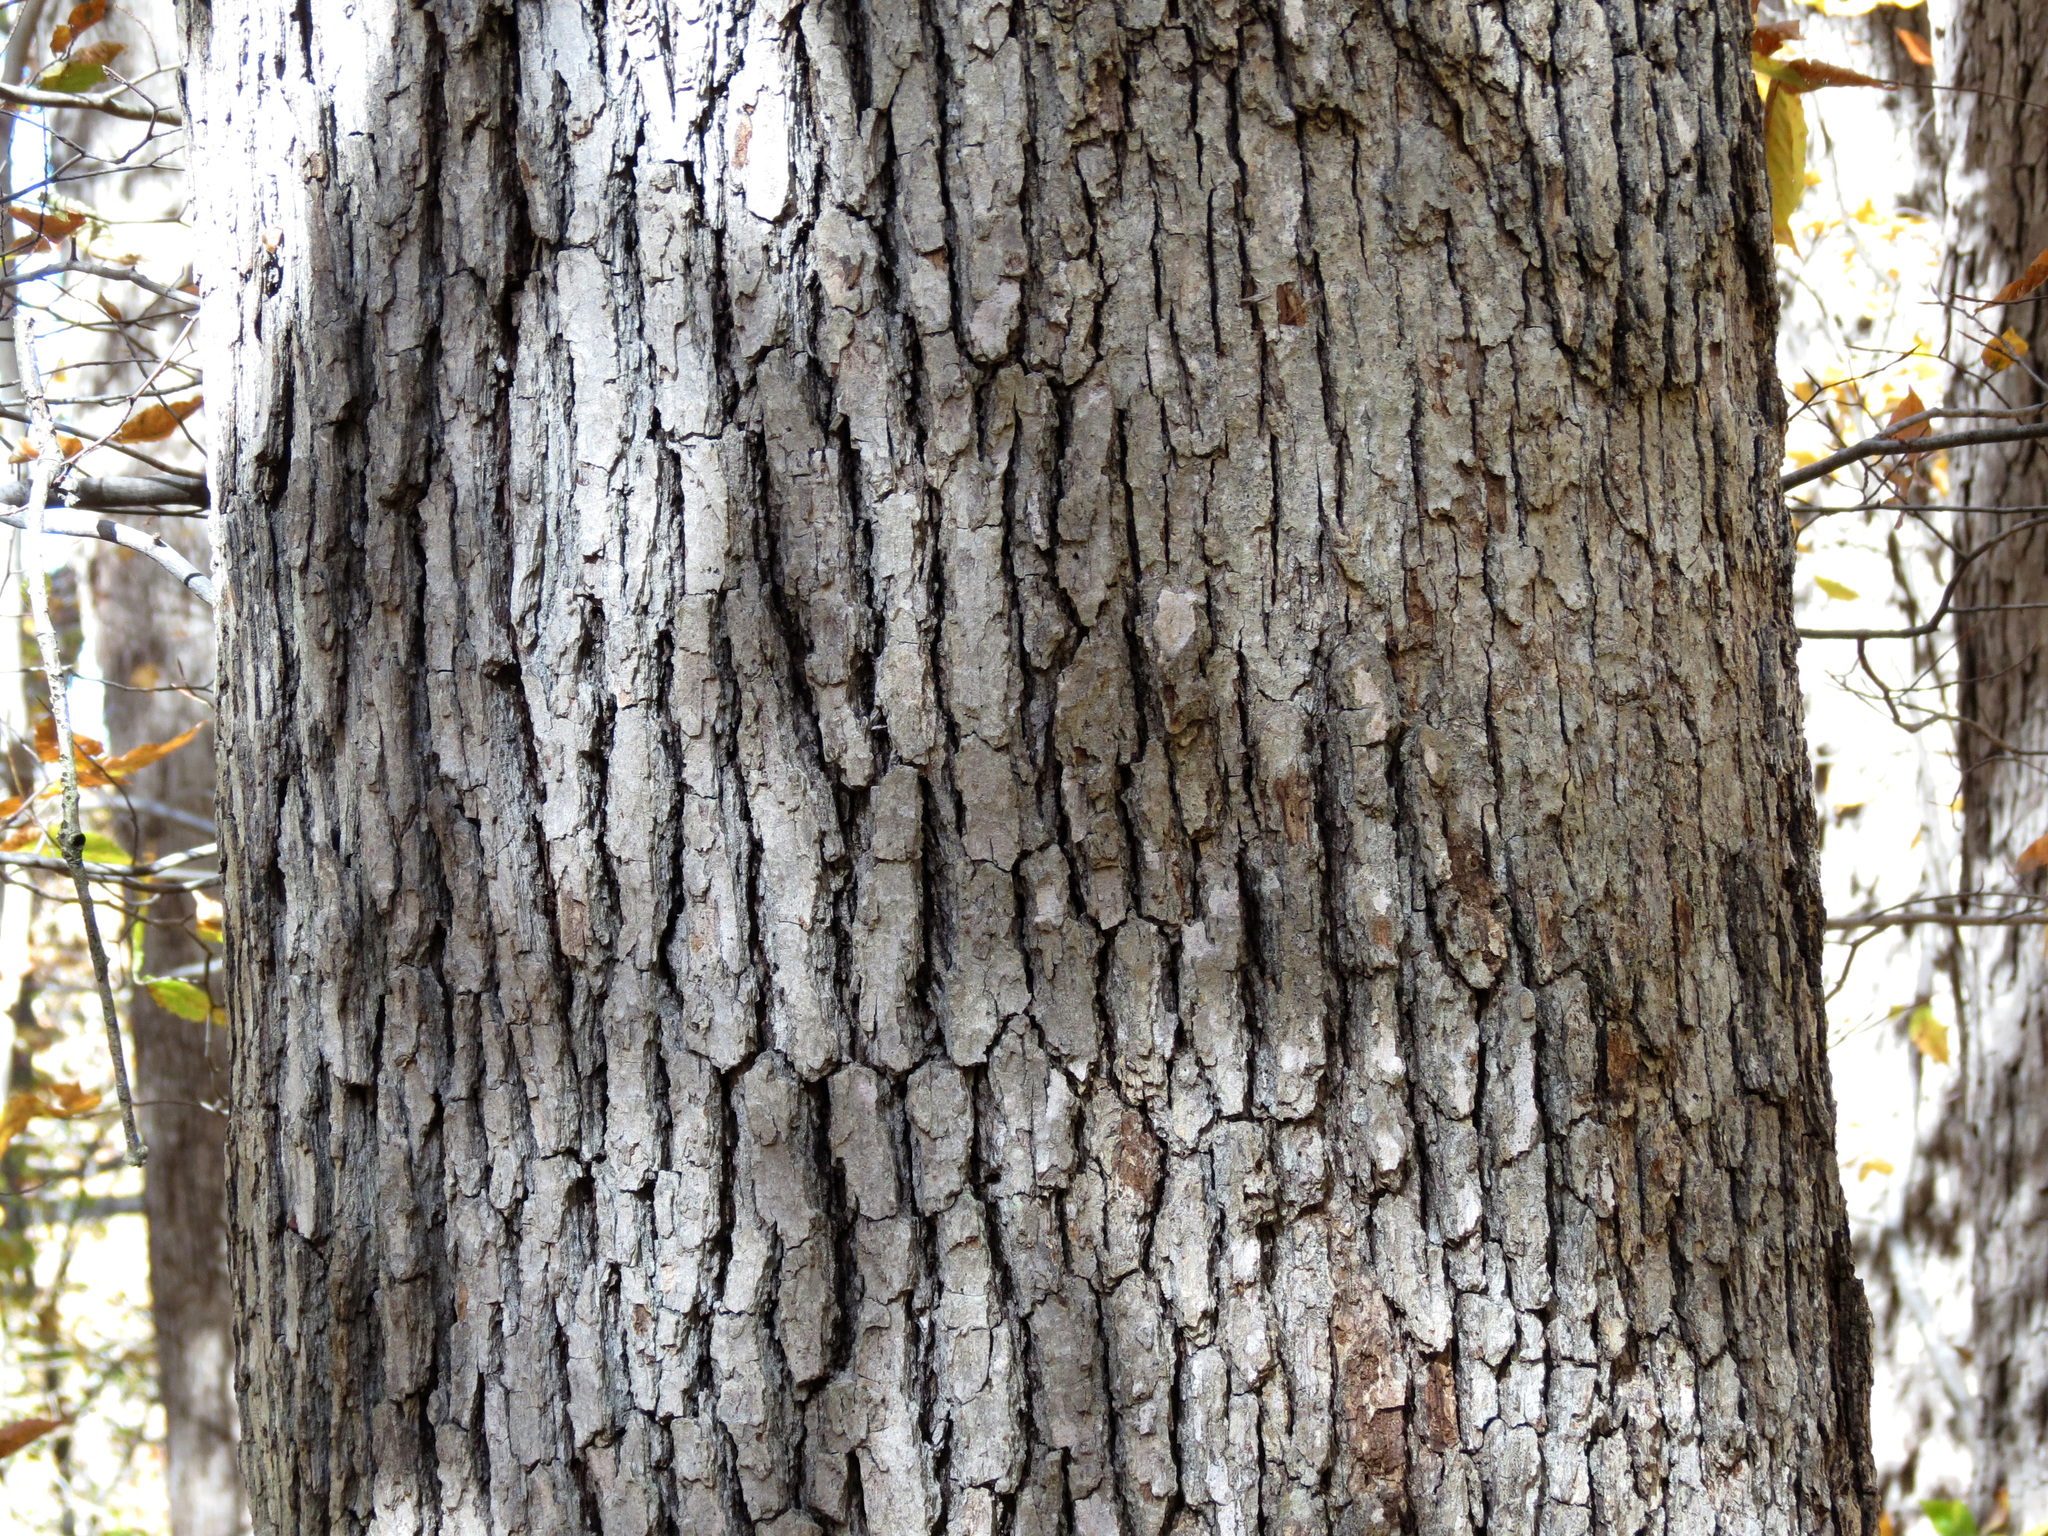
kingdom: Plantae
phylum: Tracheophyta
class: Magnoliopsida
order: Fagales
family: Fagaceae
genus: Quercus
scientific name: Quercus alba
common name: White oak
